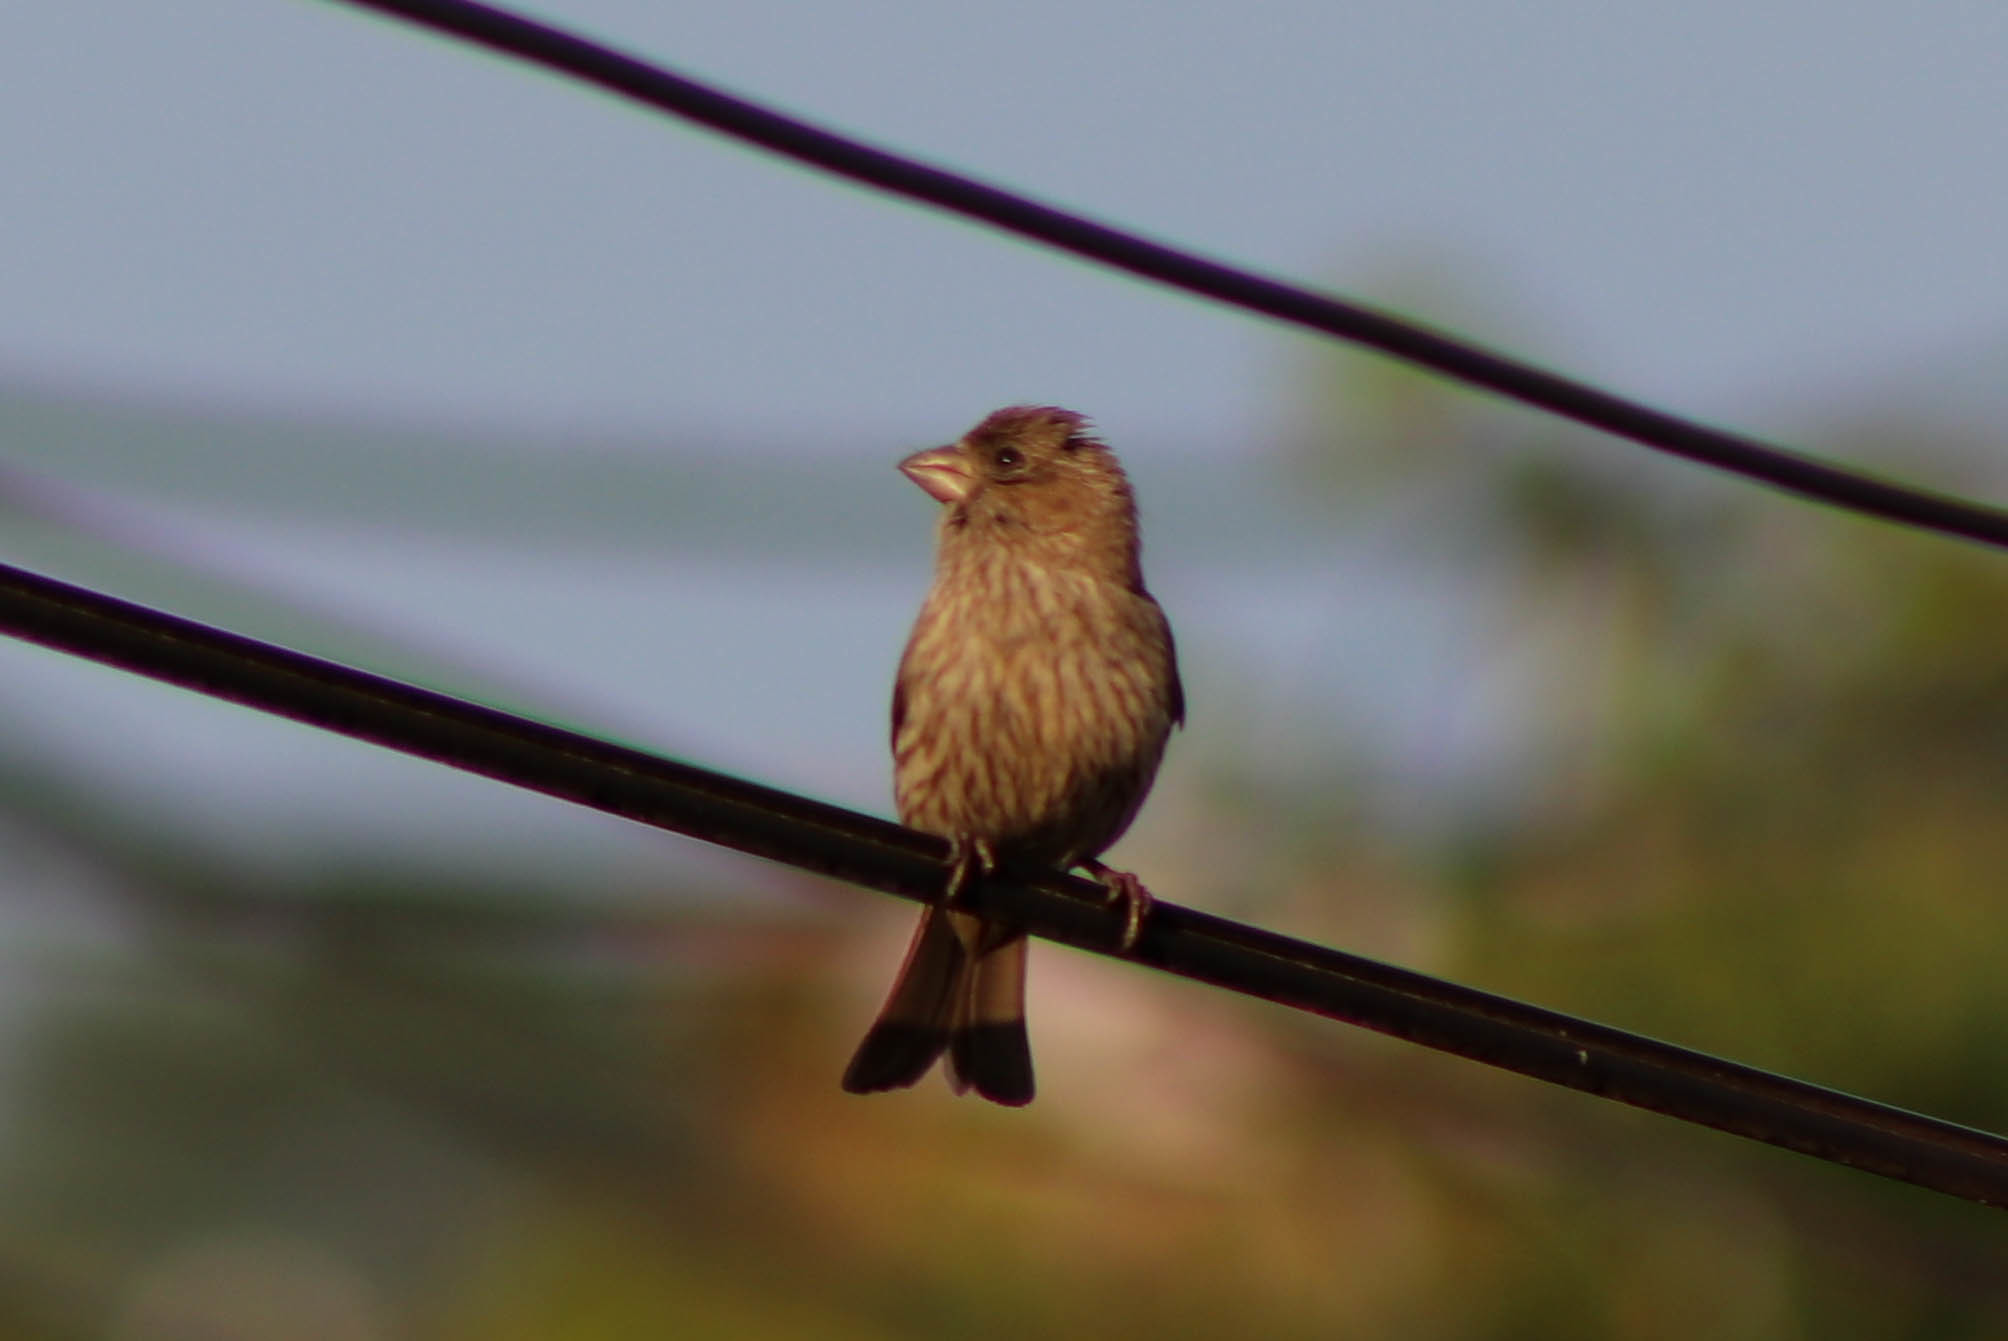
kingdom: Animalia
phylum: Chordata
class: Aves
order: Passeriformes
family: Fringillidae
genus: Haemorhous
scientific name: Haemorhous mexicanus
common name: House finch
